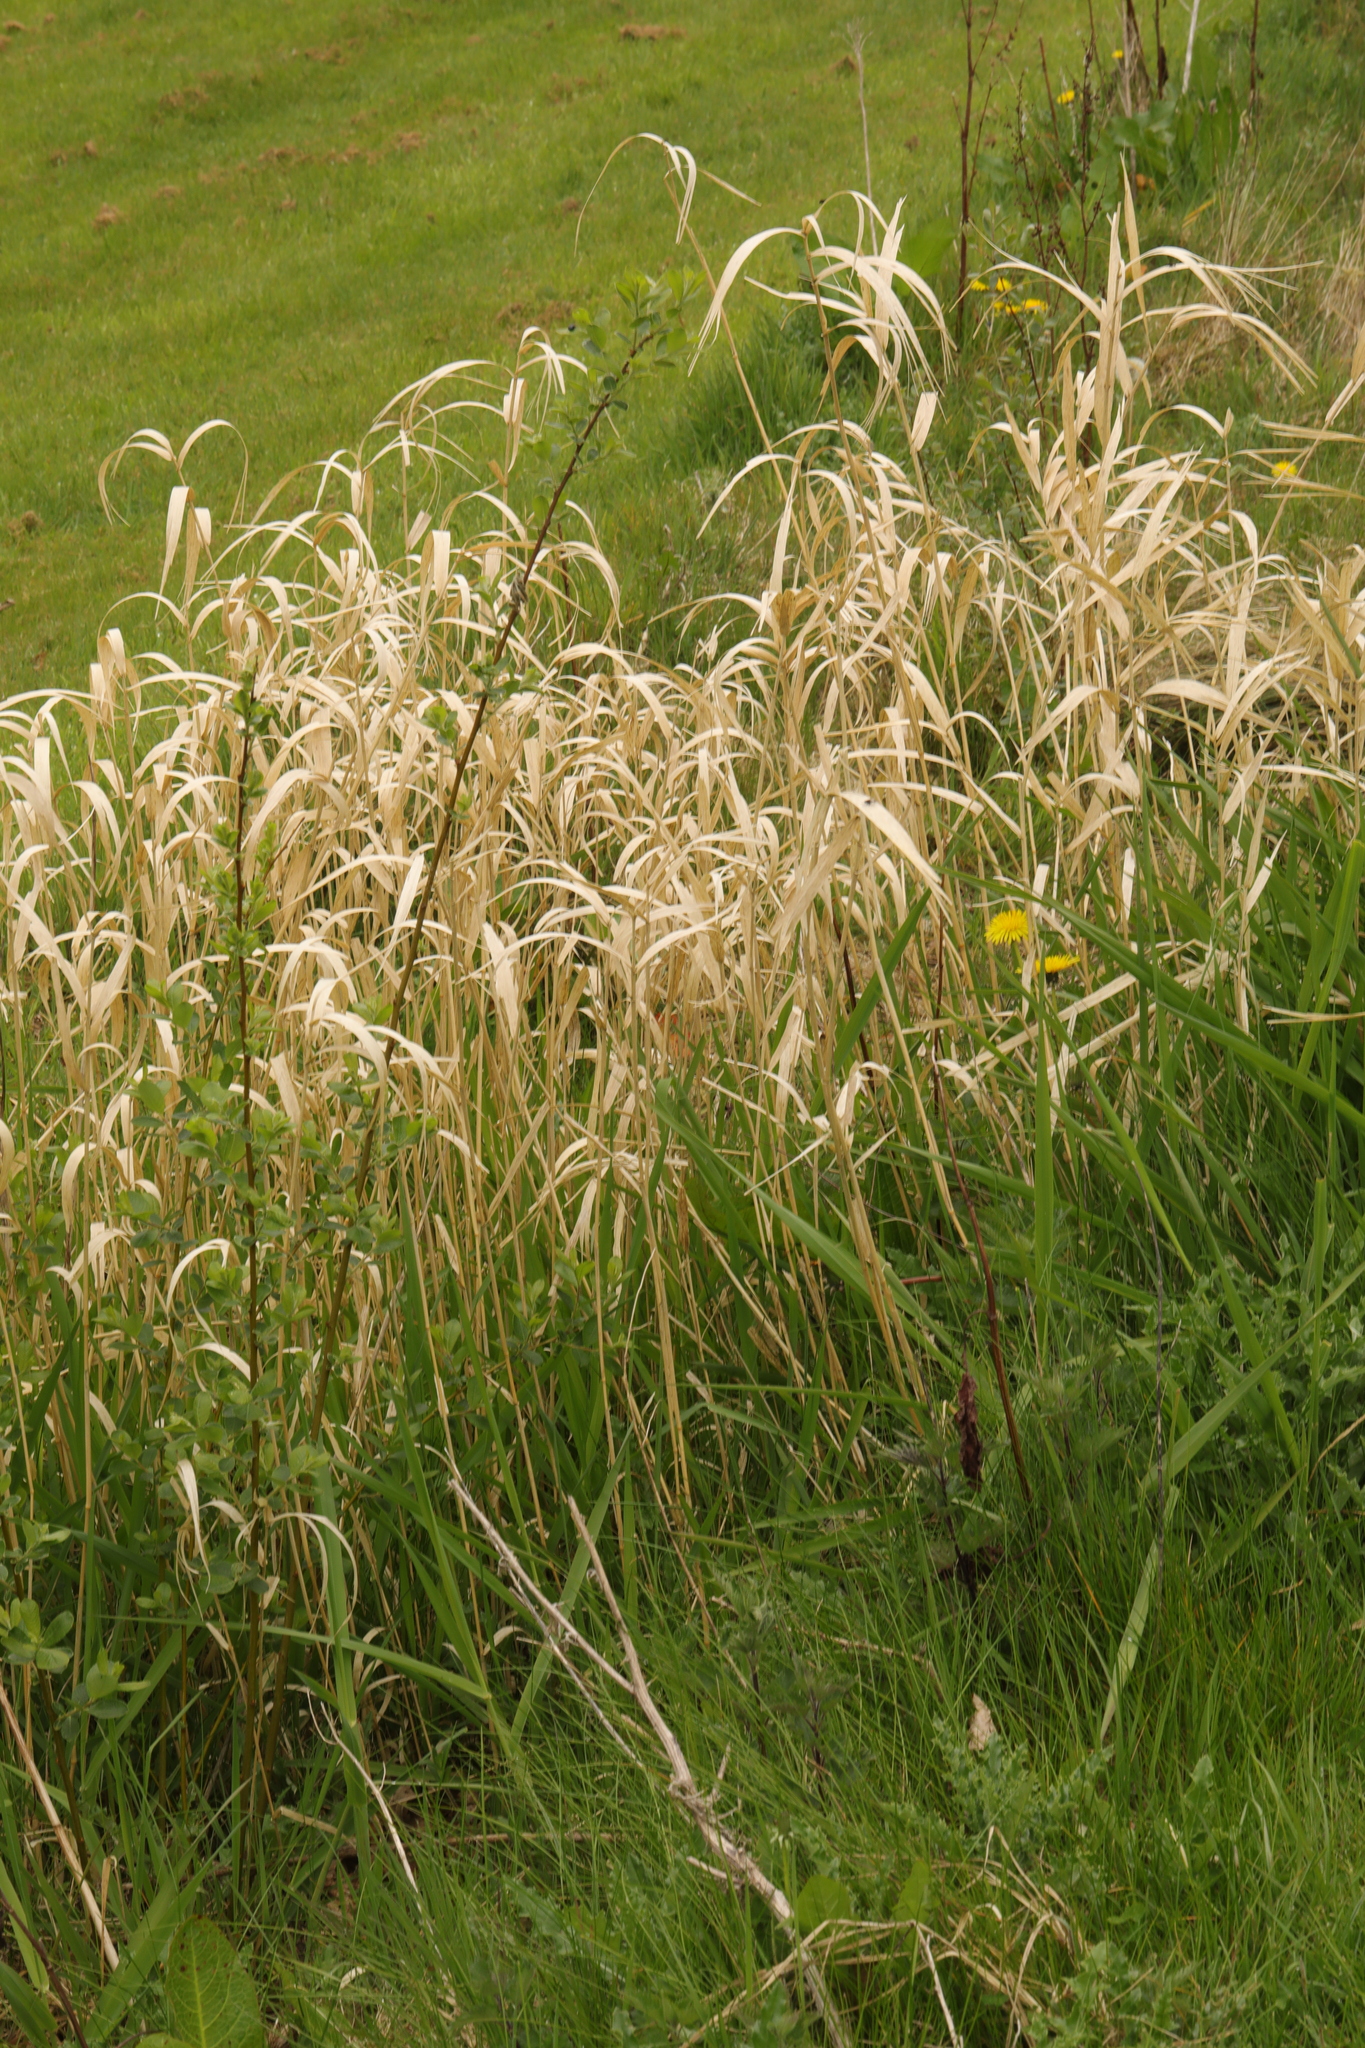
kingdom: Plantae
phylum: Tracheophyta
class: Liliopsida
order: Poales
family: Poaceae
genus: Phalaris
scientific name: Phalaris arundinacea
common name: Reed canary-grass
